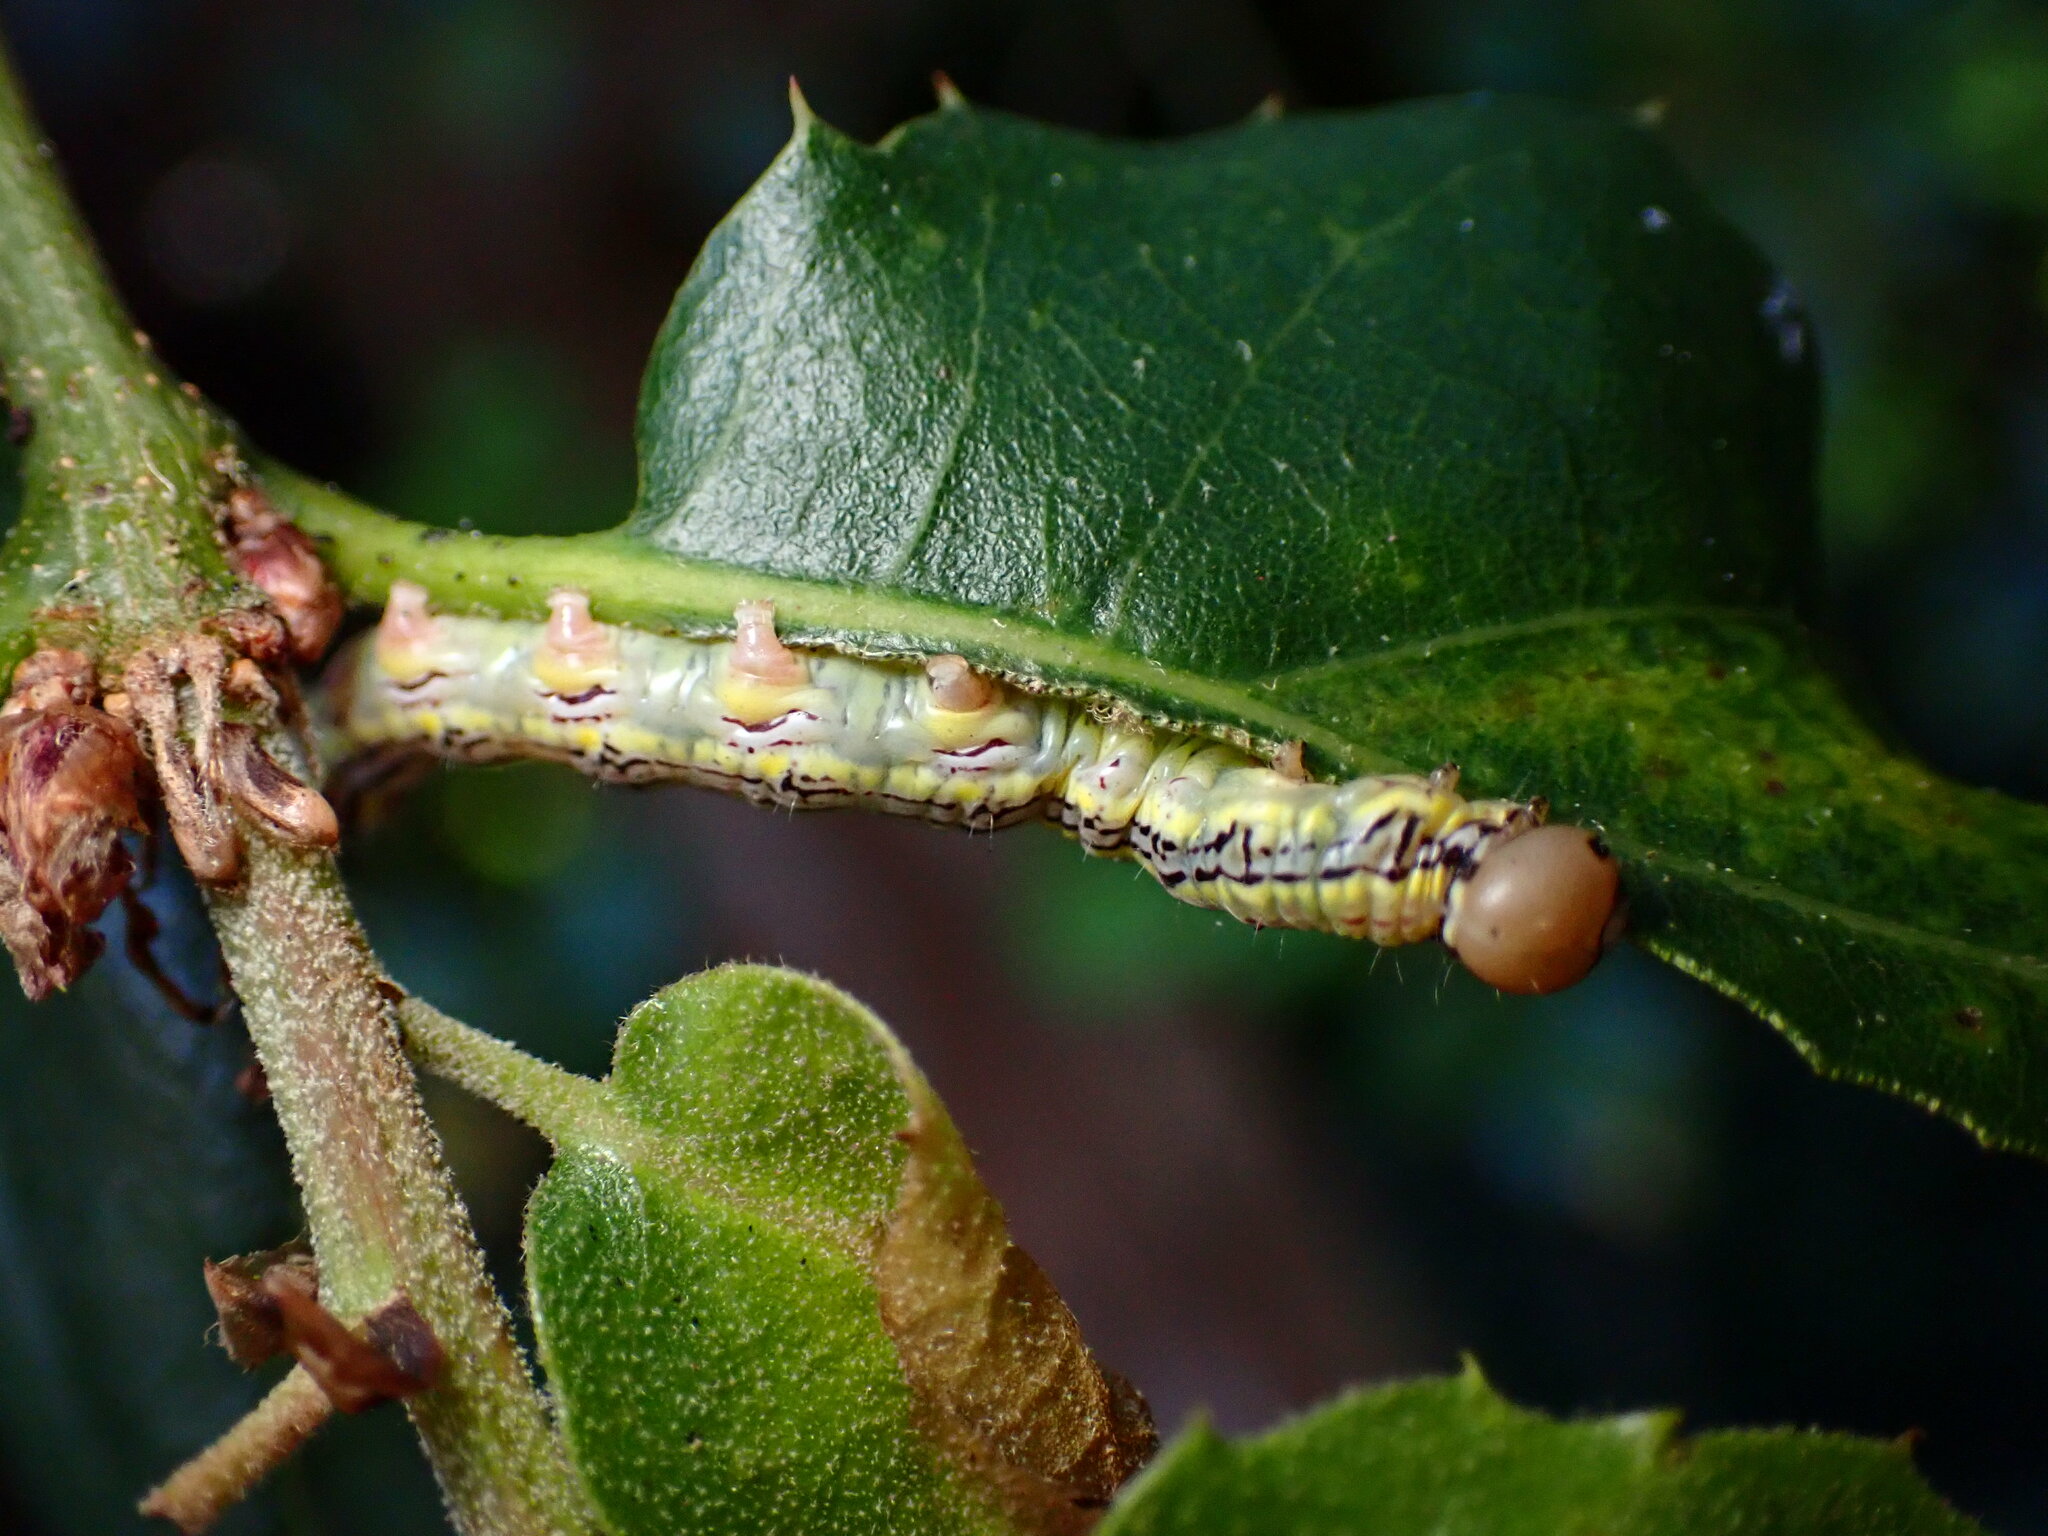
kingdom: Animalia
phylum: Arthropoda
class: Insecta
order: Lepidoptera
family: Notodontidae
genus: Phryganidia
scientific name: Phryganidia californica
